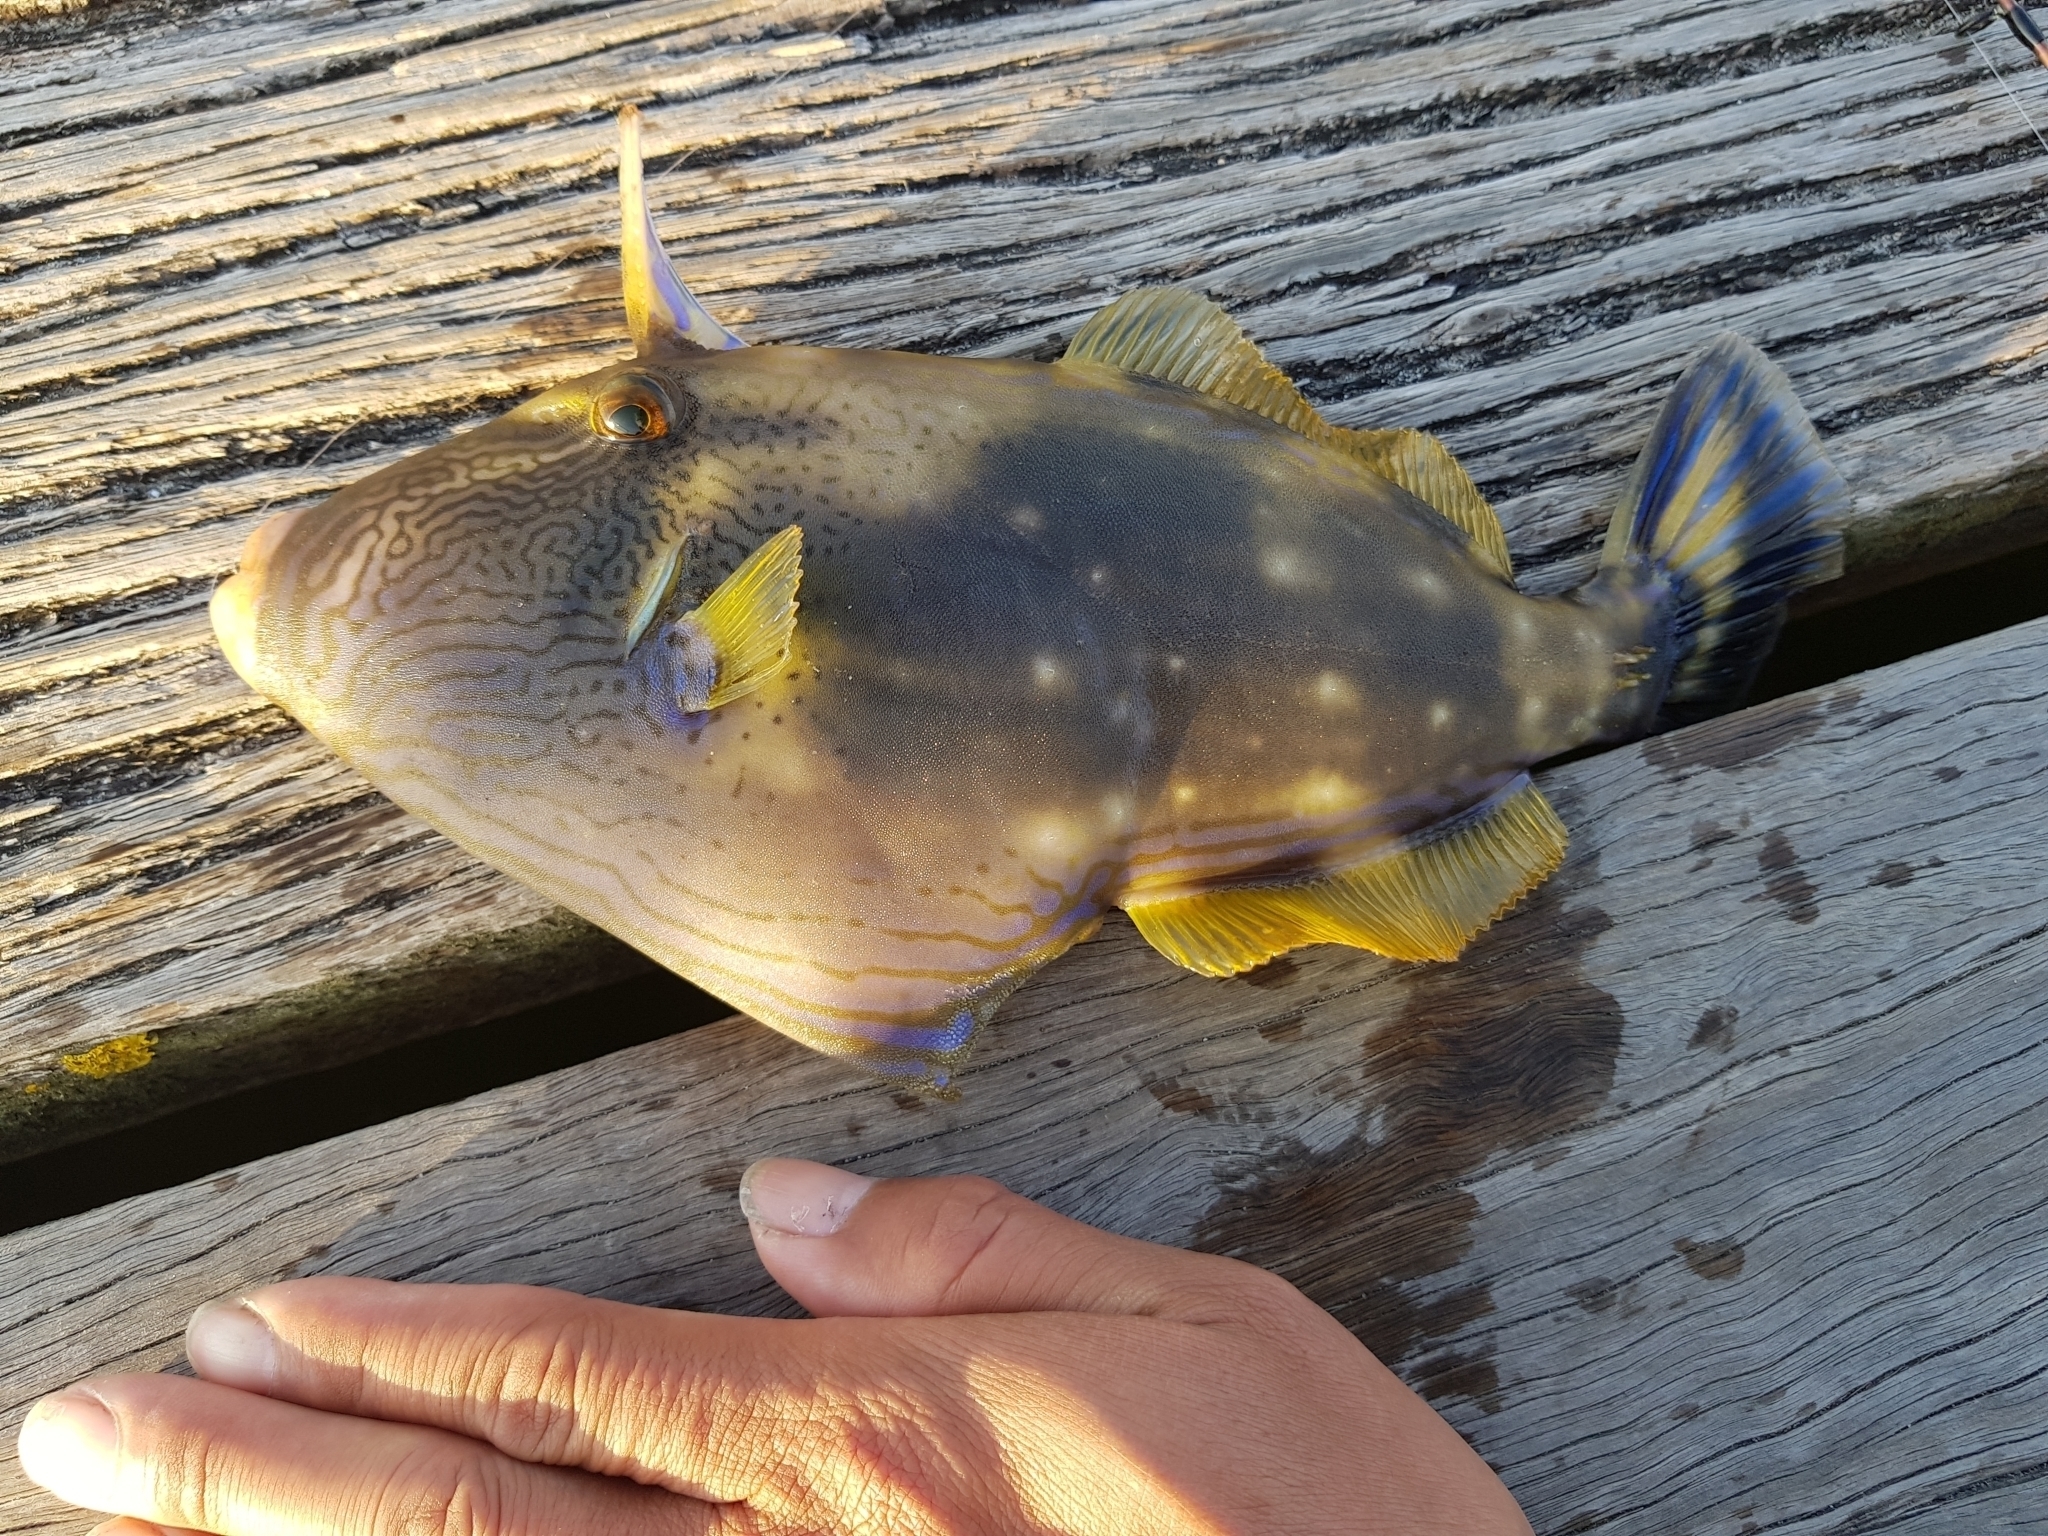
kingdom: Animalia
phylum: Chordata
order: Tetraodontiformes
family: Monacanthidae
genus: Meuschenia
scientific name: Meuschenia freycineti
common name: Freycinet's leatherjacket
